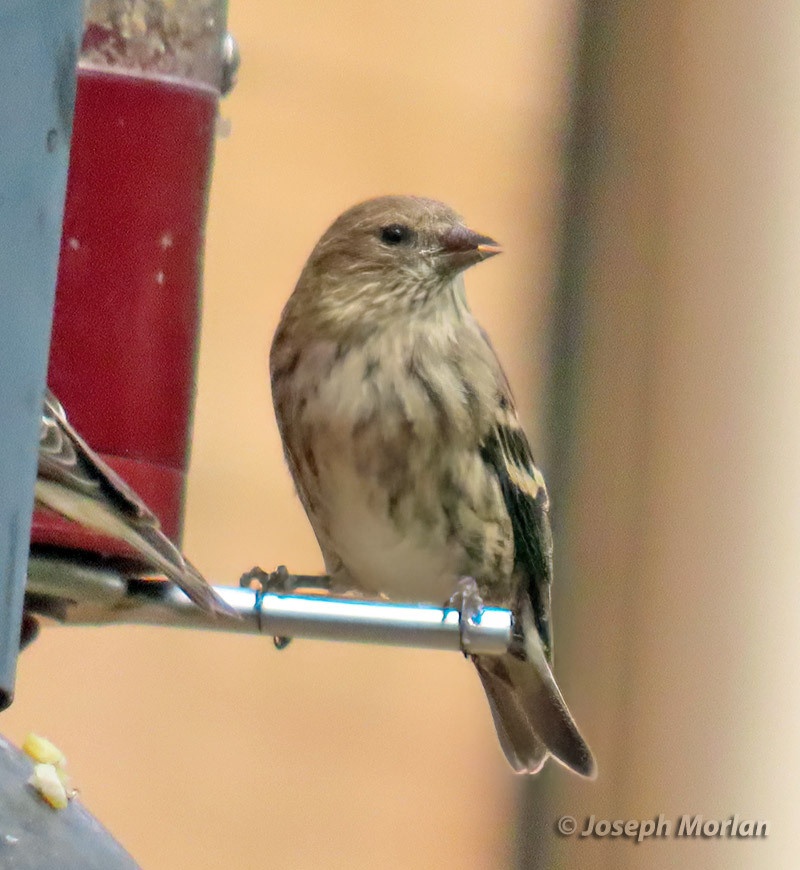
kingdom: Animalia
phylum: Chordata
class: Aves
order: Passeriformes
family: Fringillidae
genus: Spinus
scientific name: Spinus pinus
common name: Pine siskin
